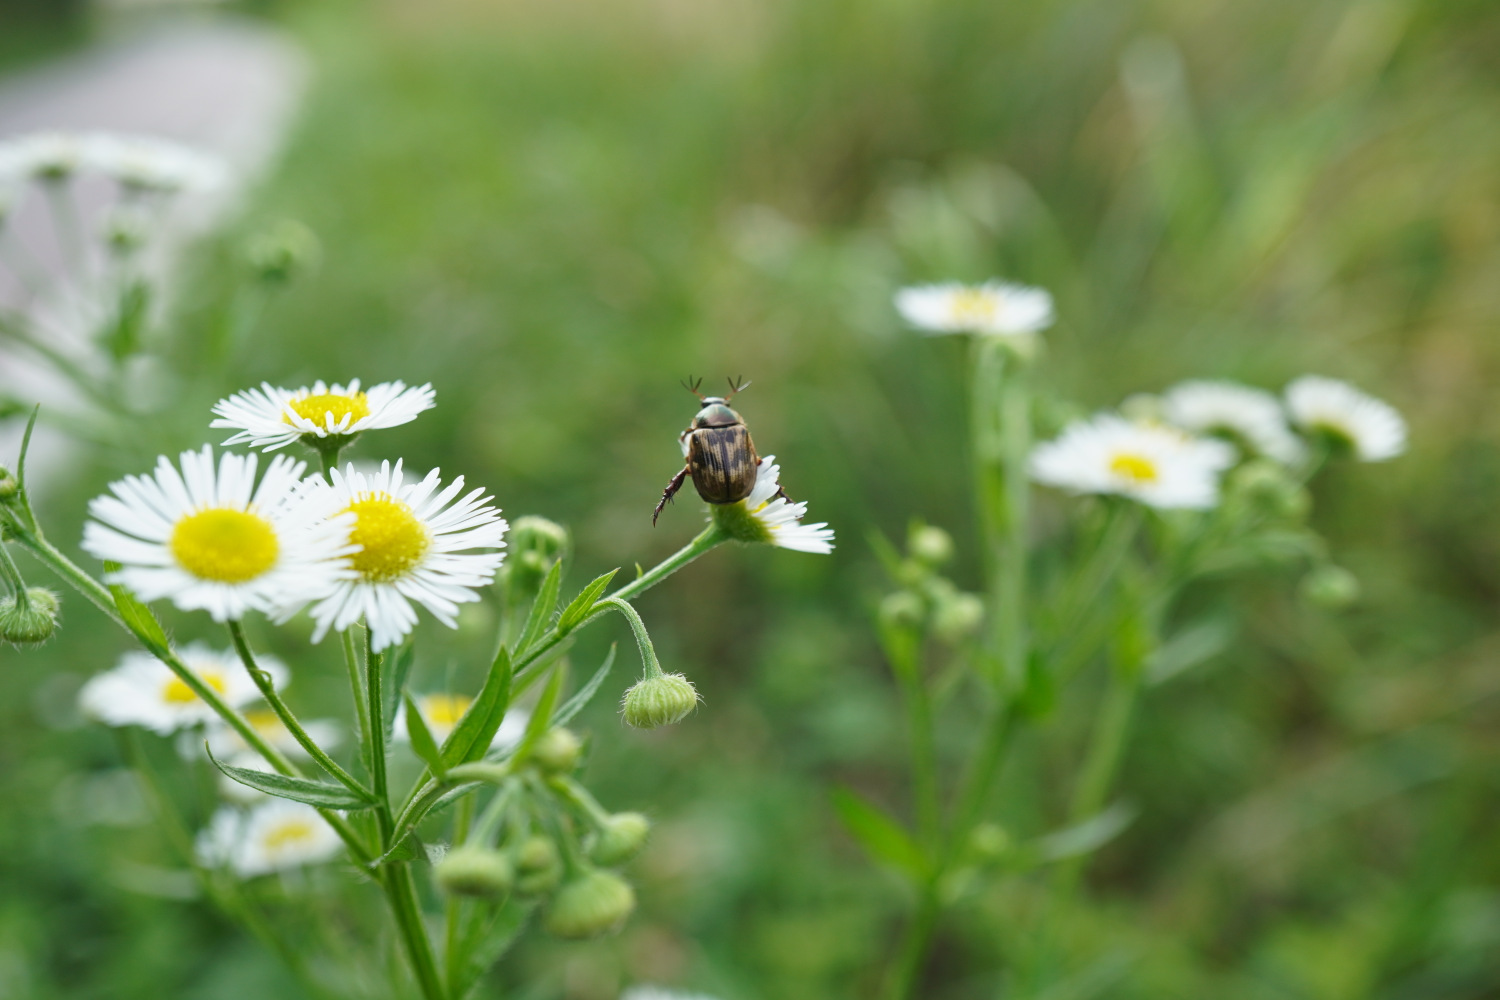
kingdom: Animalia
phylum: Arthropoda
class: Insecta
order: Coleoptera
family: Scarabaeidae
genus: Exomala
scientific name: Exomala orientalis
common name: Oriental beetle
